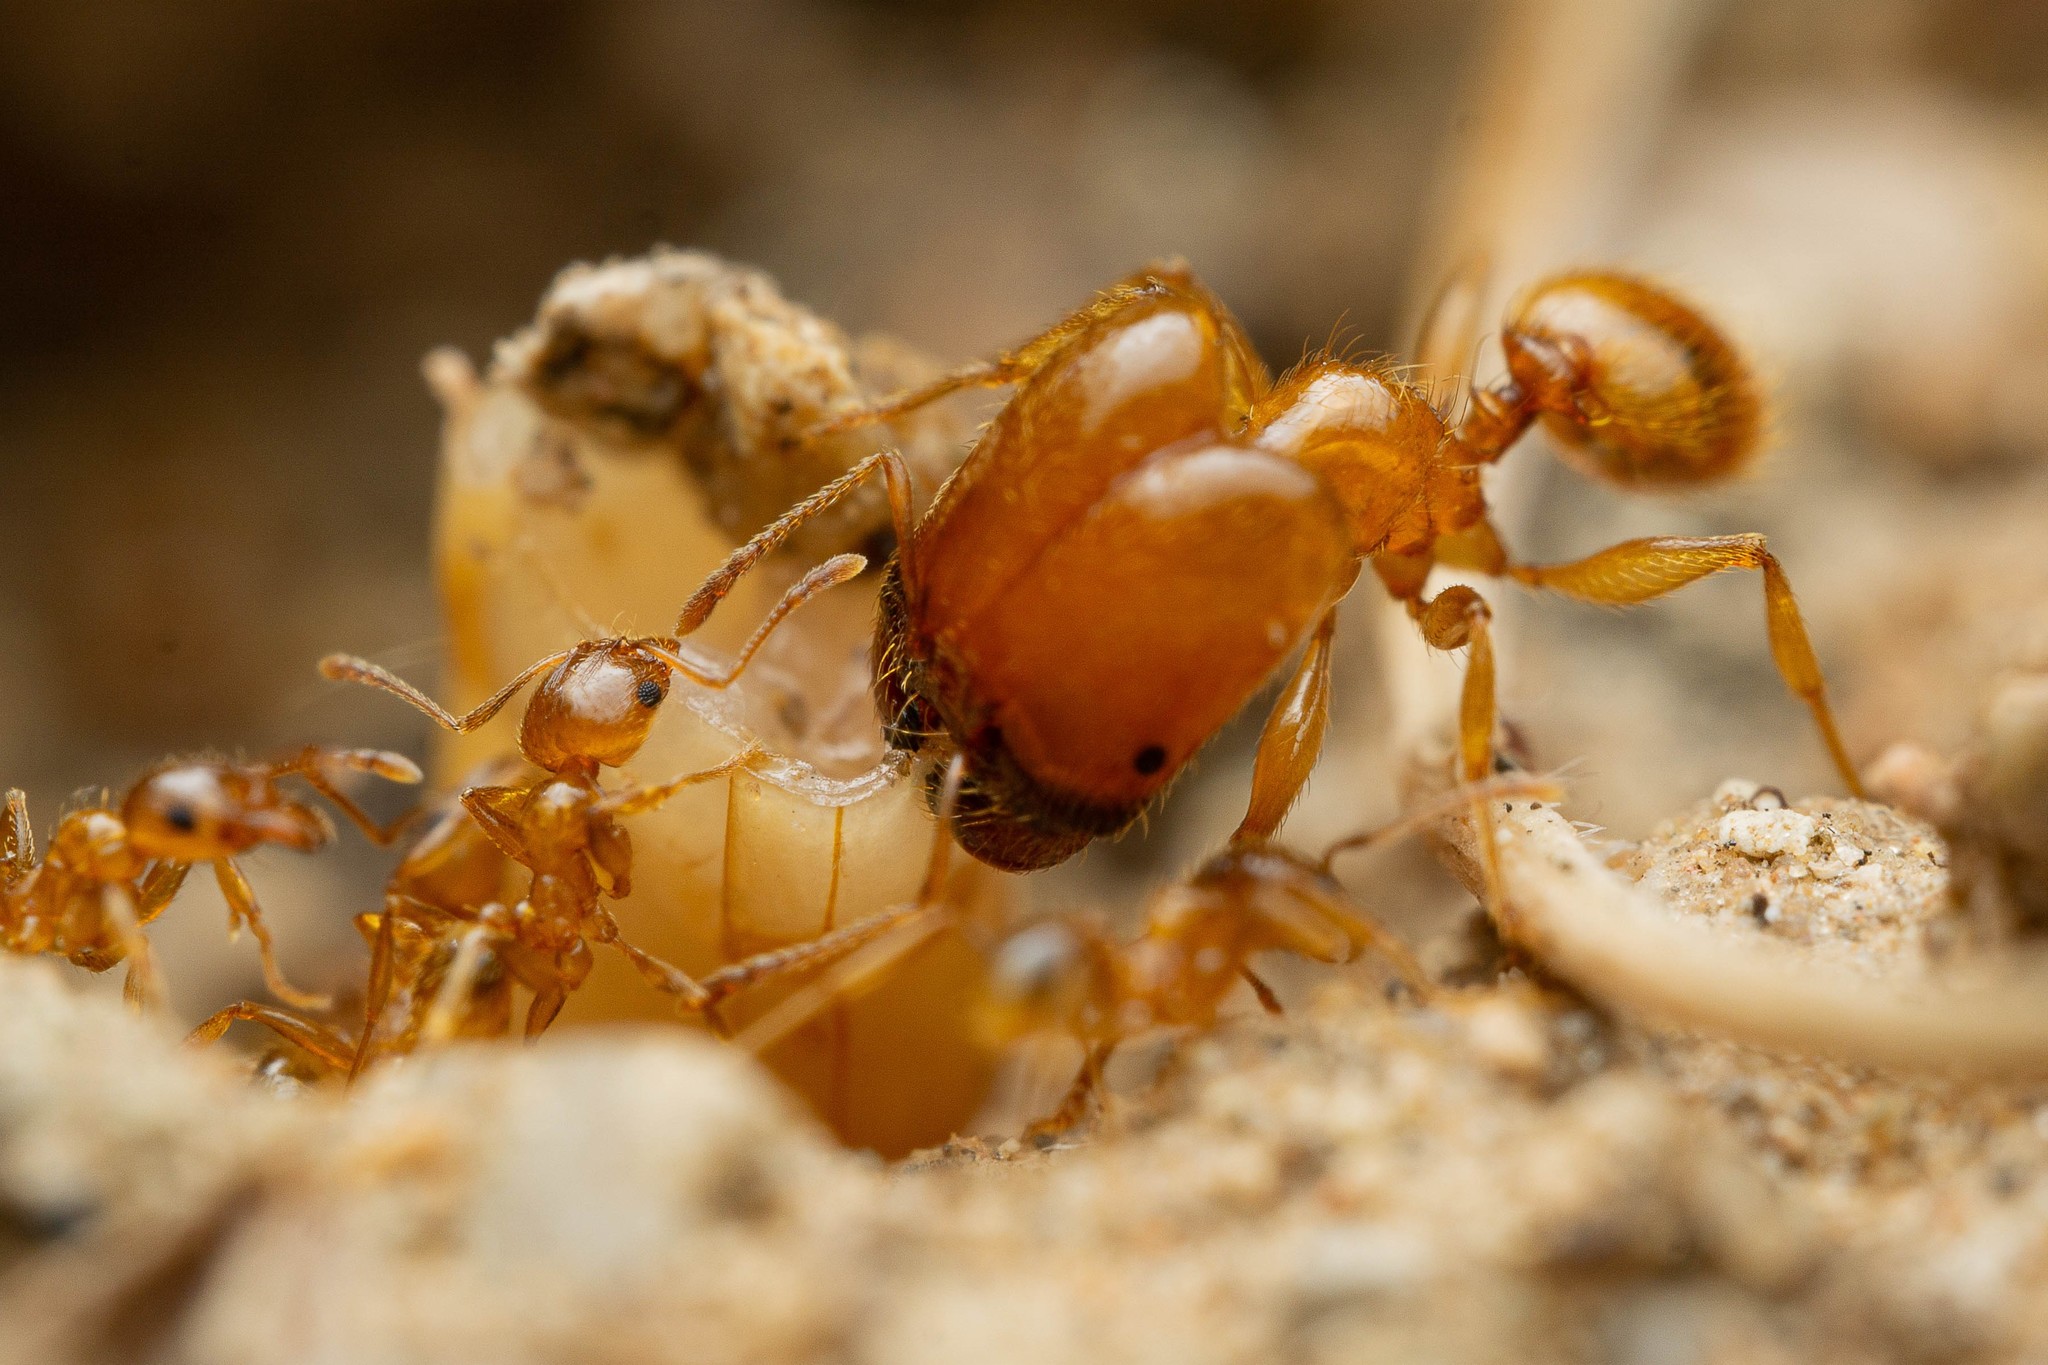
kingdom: Animalia
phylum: Arthropoda
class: Insecta
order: Hymenoptera
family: Formicidae
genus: Pheidole
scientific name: Pheidole spadonia
